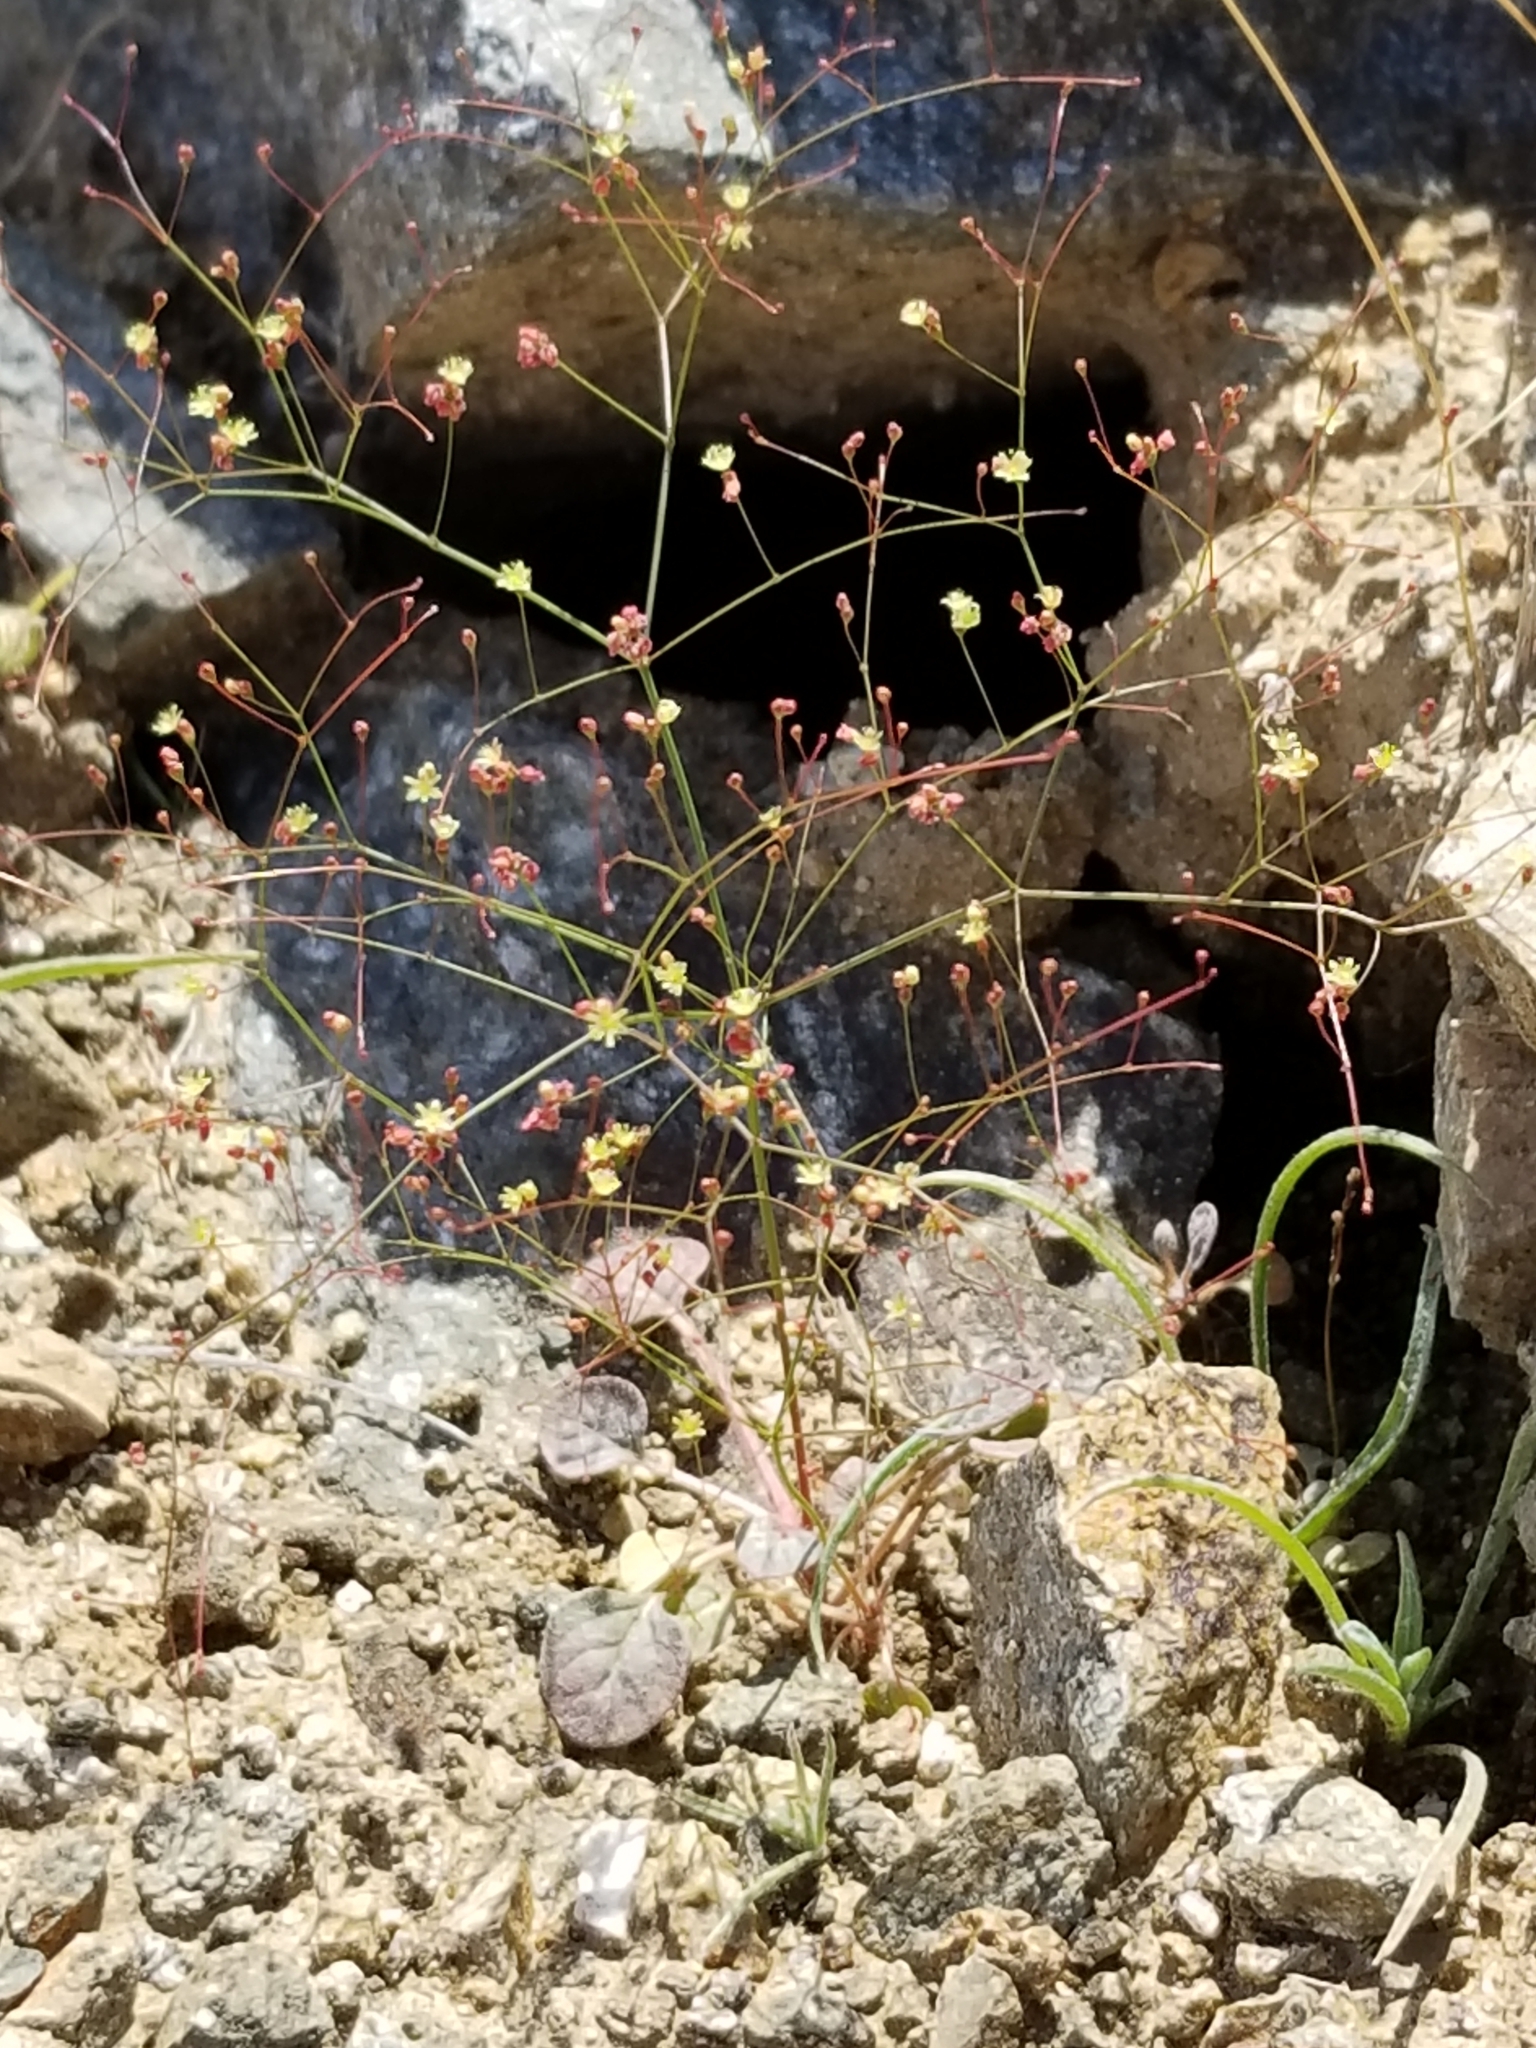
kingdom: Plantae
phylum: Tracheophyta
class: Magnoliopsida
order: Caryophyllales
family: Polygonaceae
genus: Eriogonum
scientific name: Eriogonum thomasii
